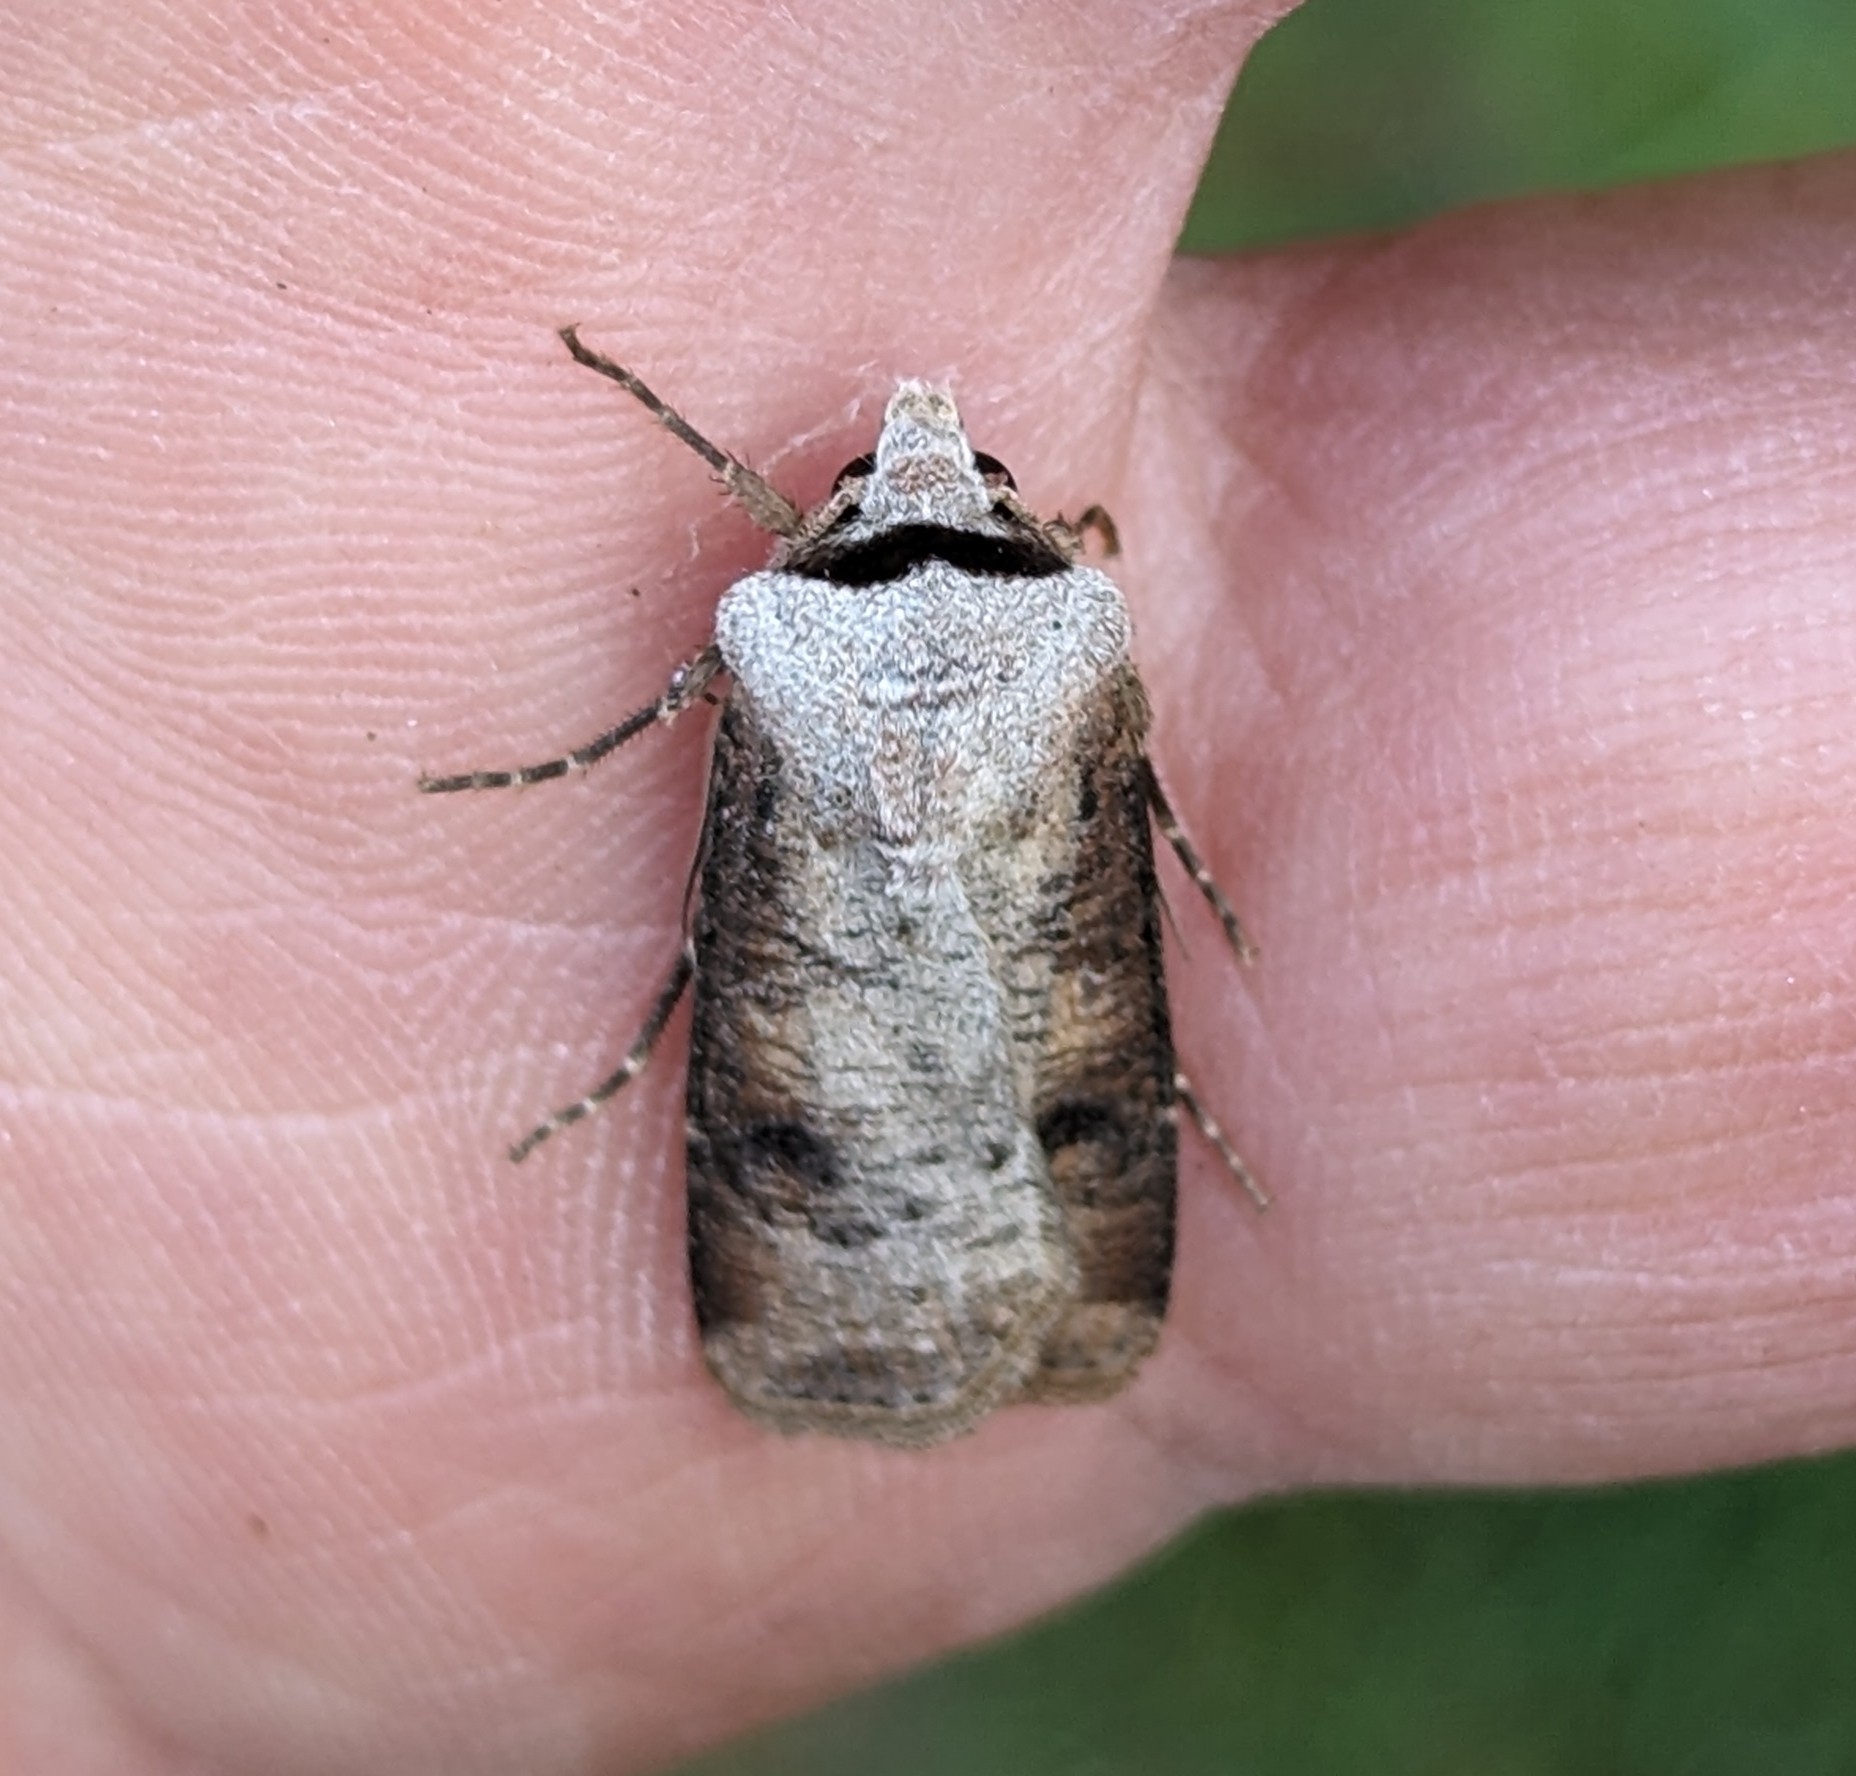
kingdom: Animalia
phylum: Arthropoda
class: Insecta
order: Lepidoptera
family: Noctuidae
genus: Euxoa
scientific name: Euxoa bochus
